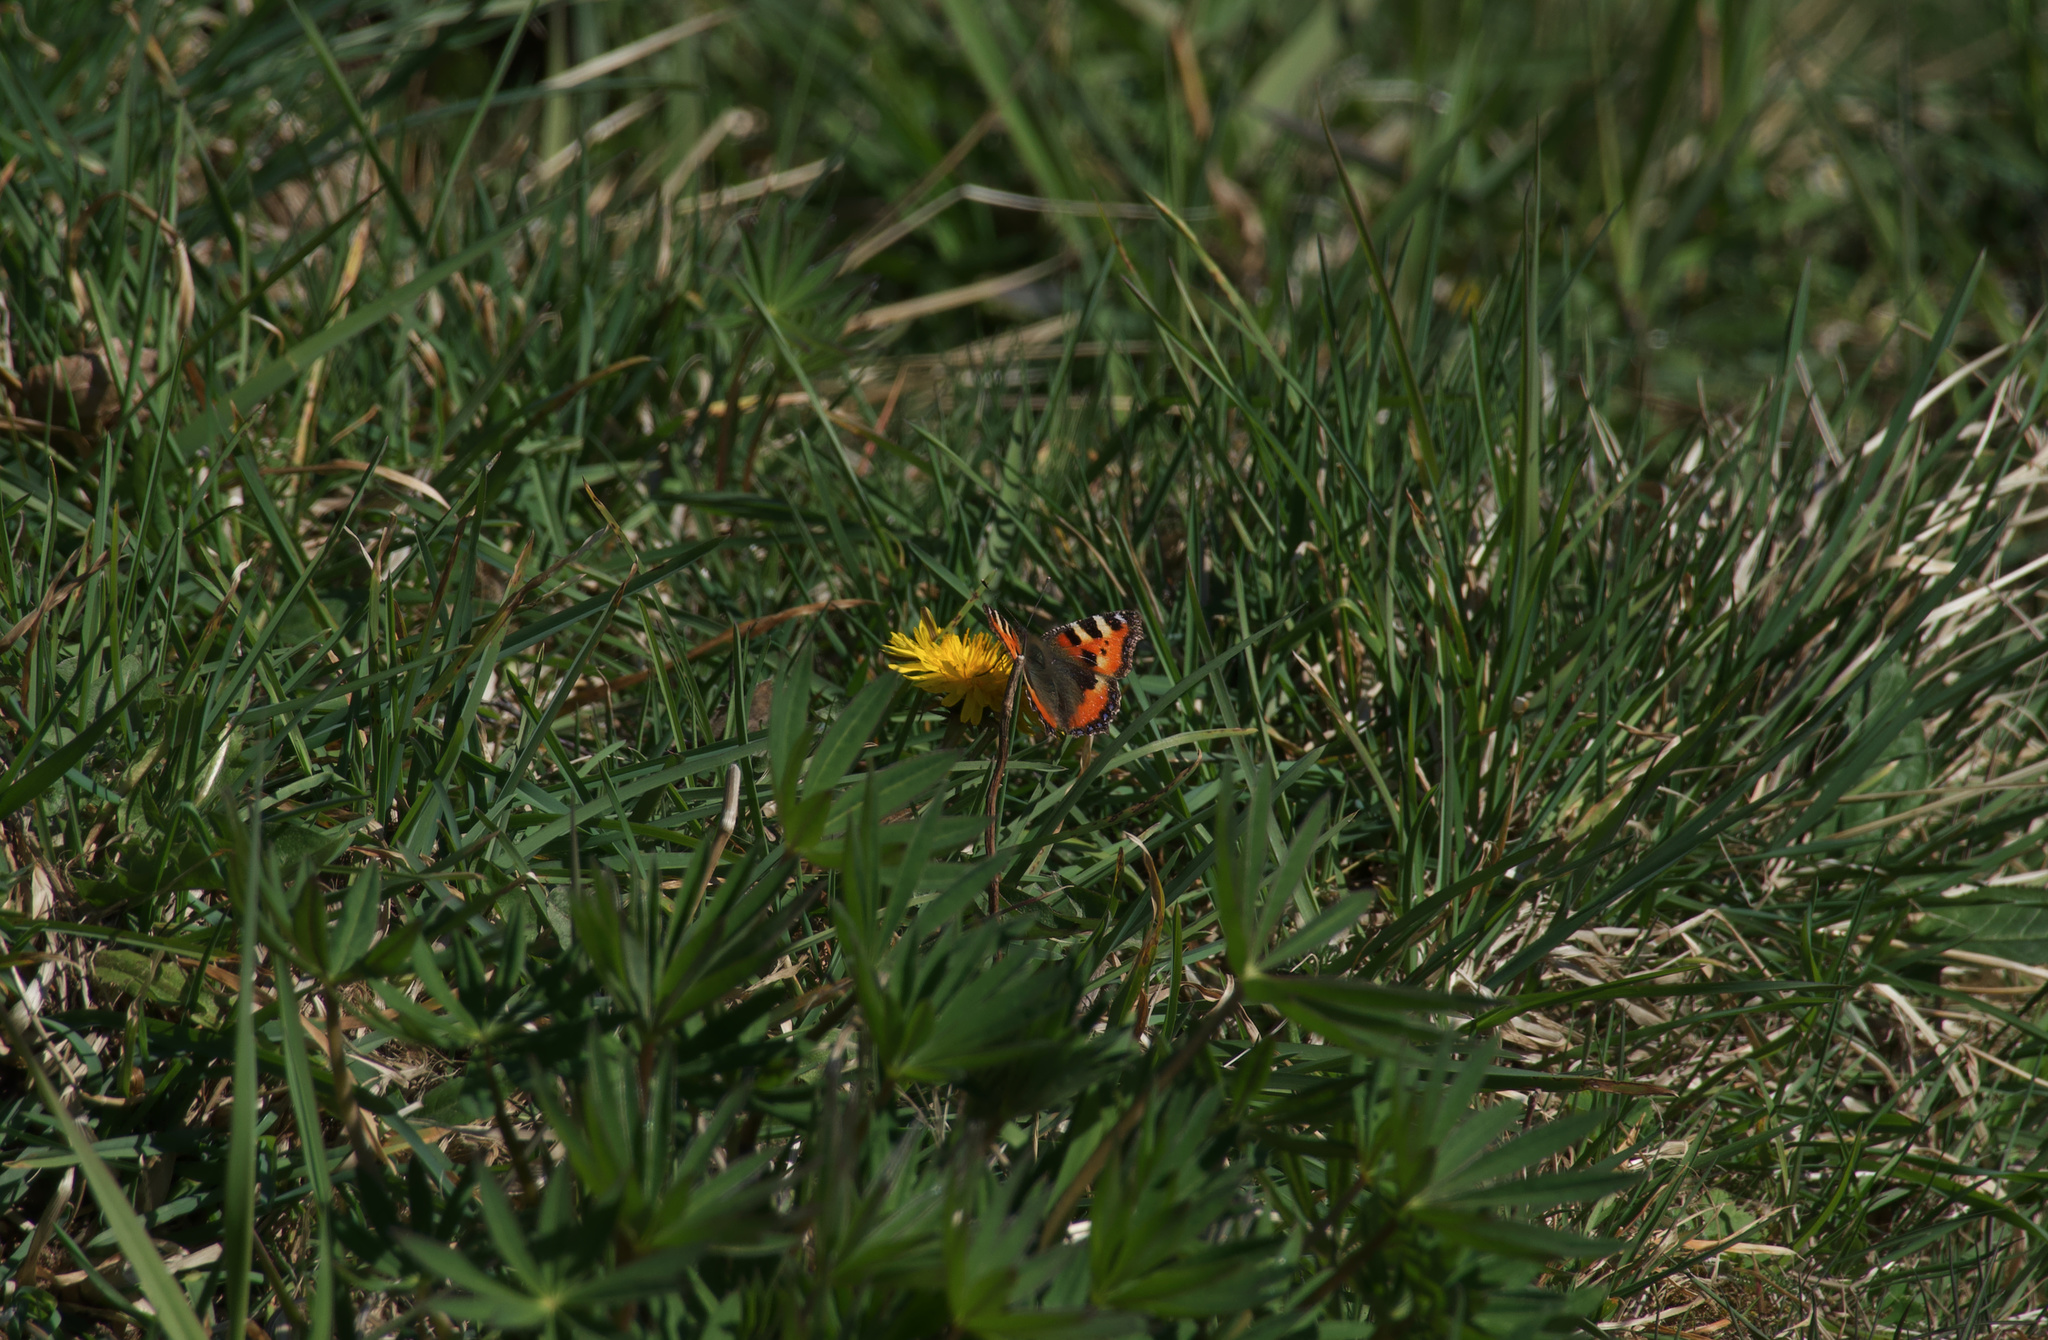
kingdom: Animalia
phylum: Arthropoda
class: Insecta
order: Lepidoptera
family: Nymphalidae
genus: Aglais
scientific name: Aglais urticae
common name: Small tortoiseshell
